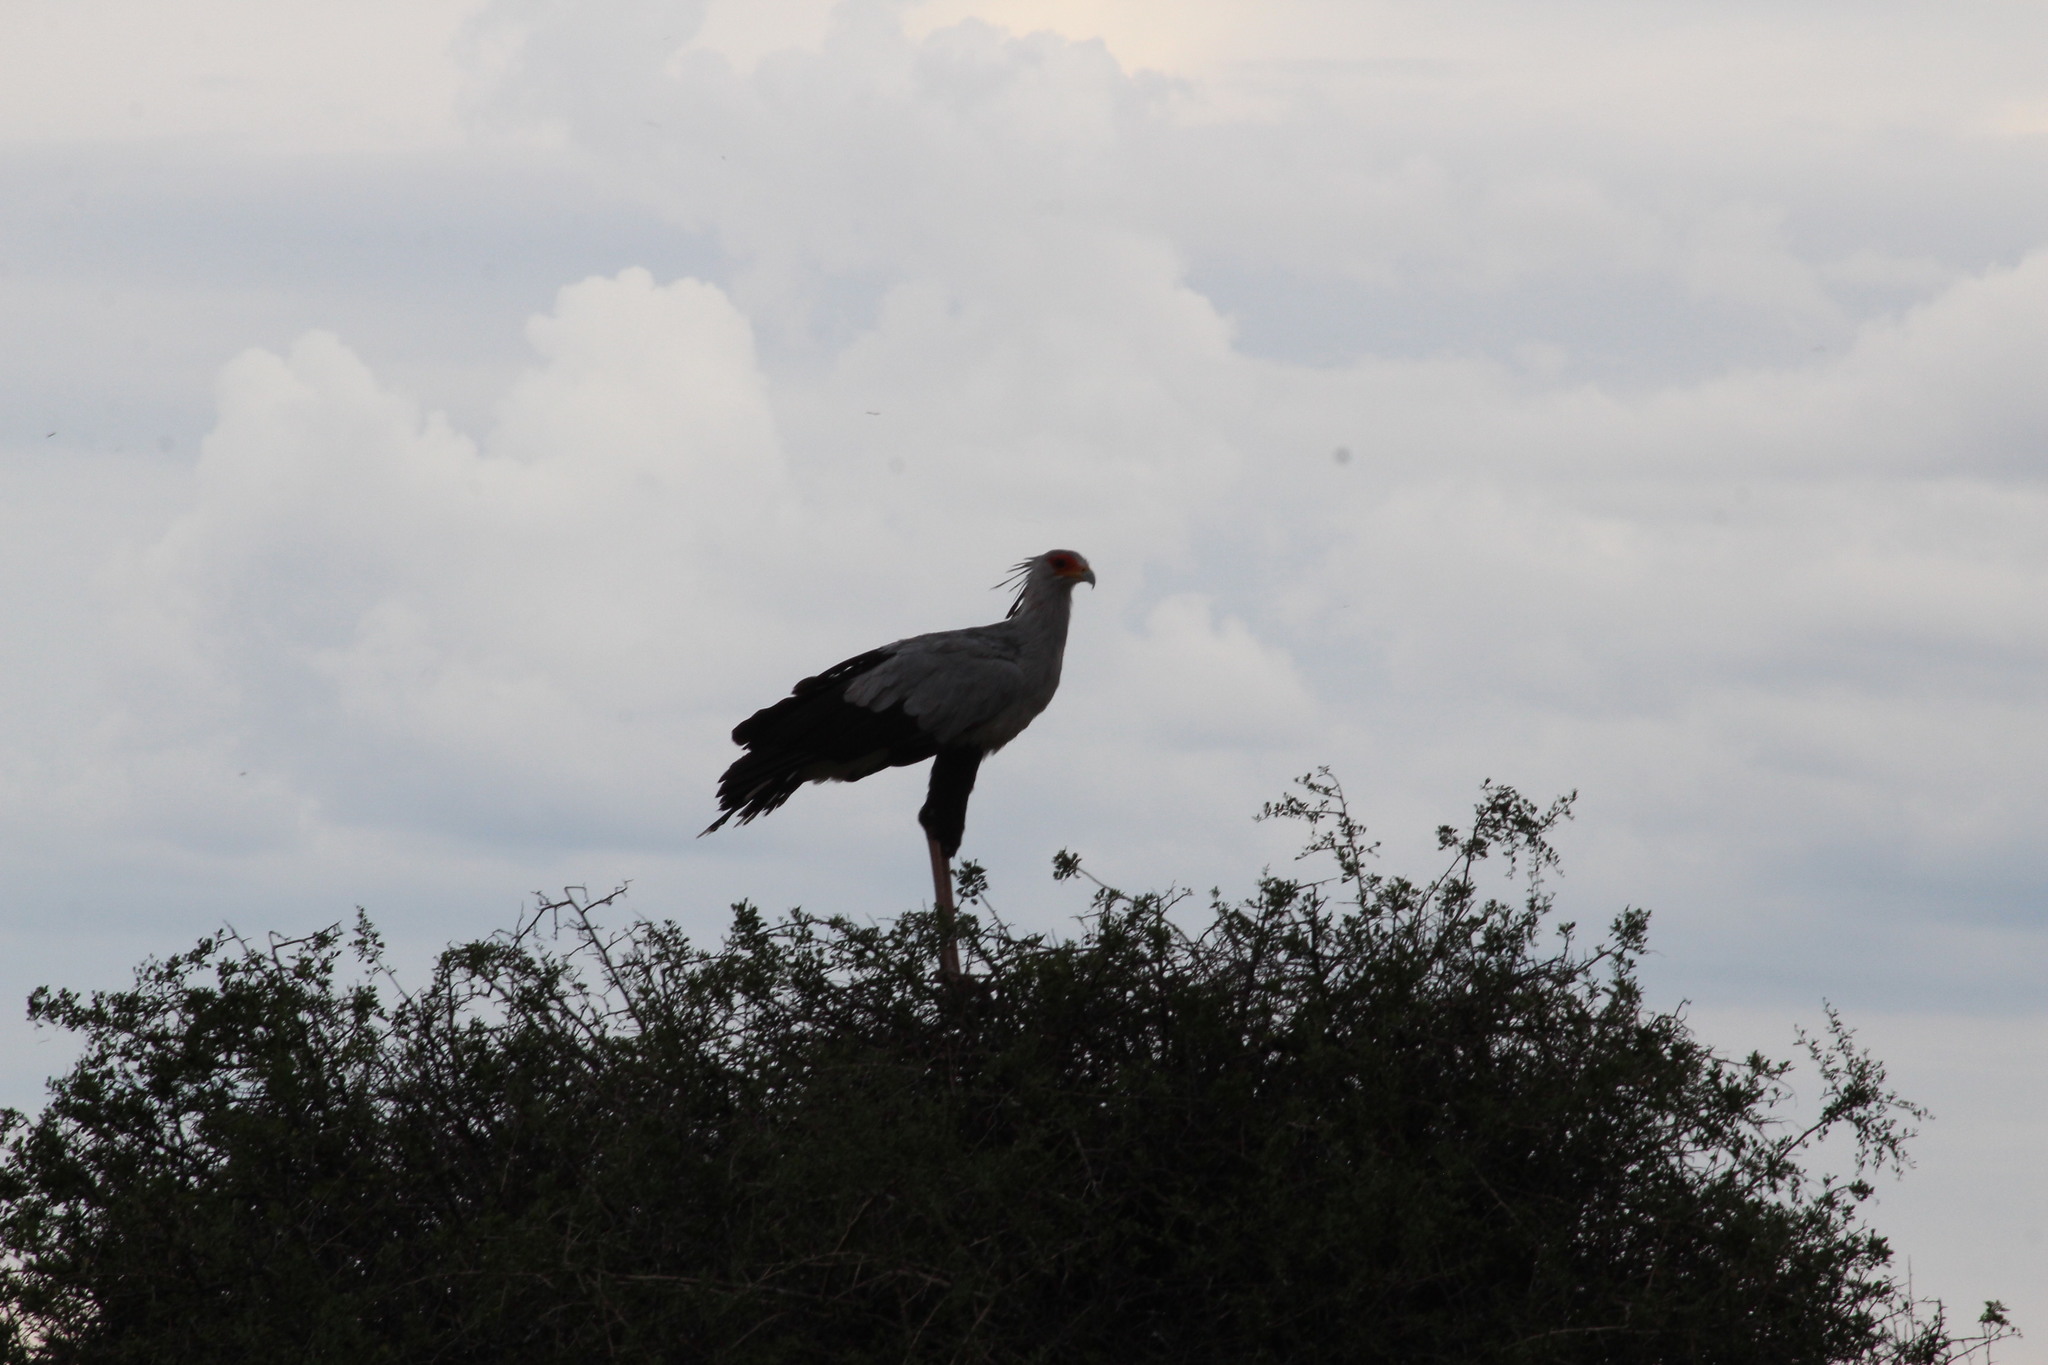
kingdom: Animalia
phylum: Chordata
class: Aves
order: Accipitriformes
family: Sagittariidae
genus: Sagittarius
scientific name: Sagittarius serpentarius
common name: Secretarybird
